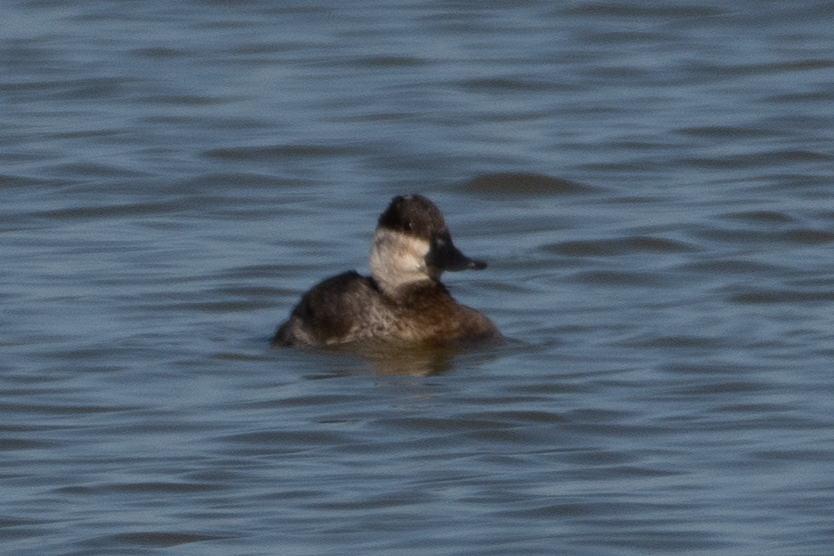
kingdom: Animalia
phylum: Chordata
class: Aves
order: Anseriformes
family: Anatidae
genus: Oxyura
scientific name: Oxyura jamaicensis
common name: Ruddy duck
